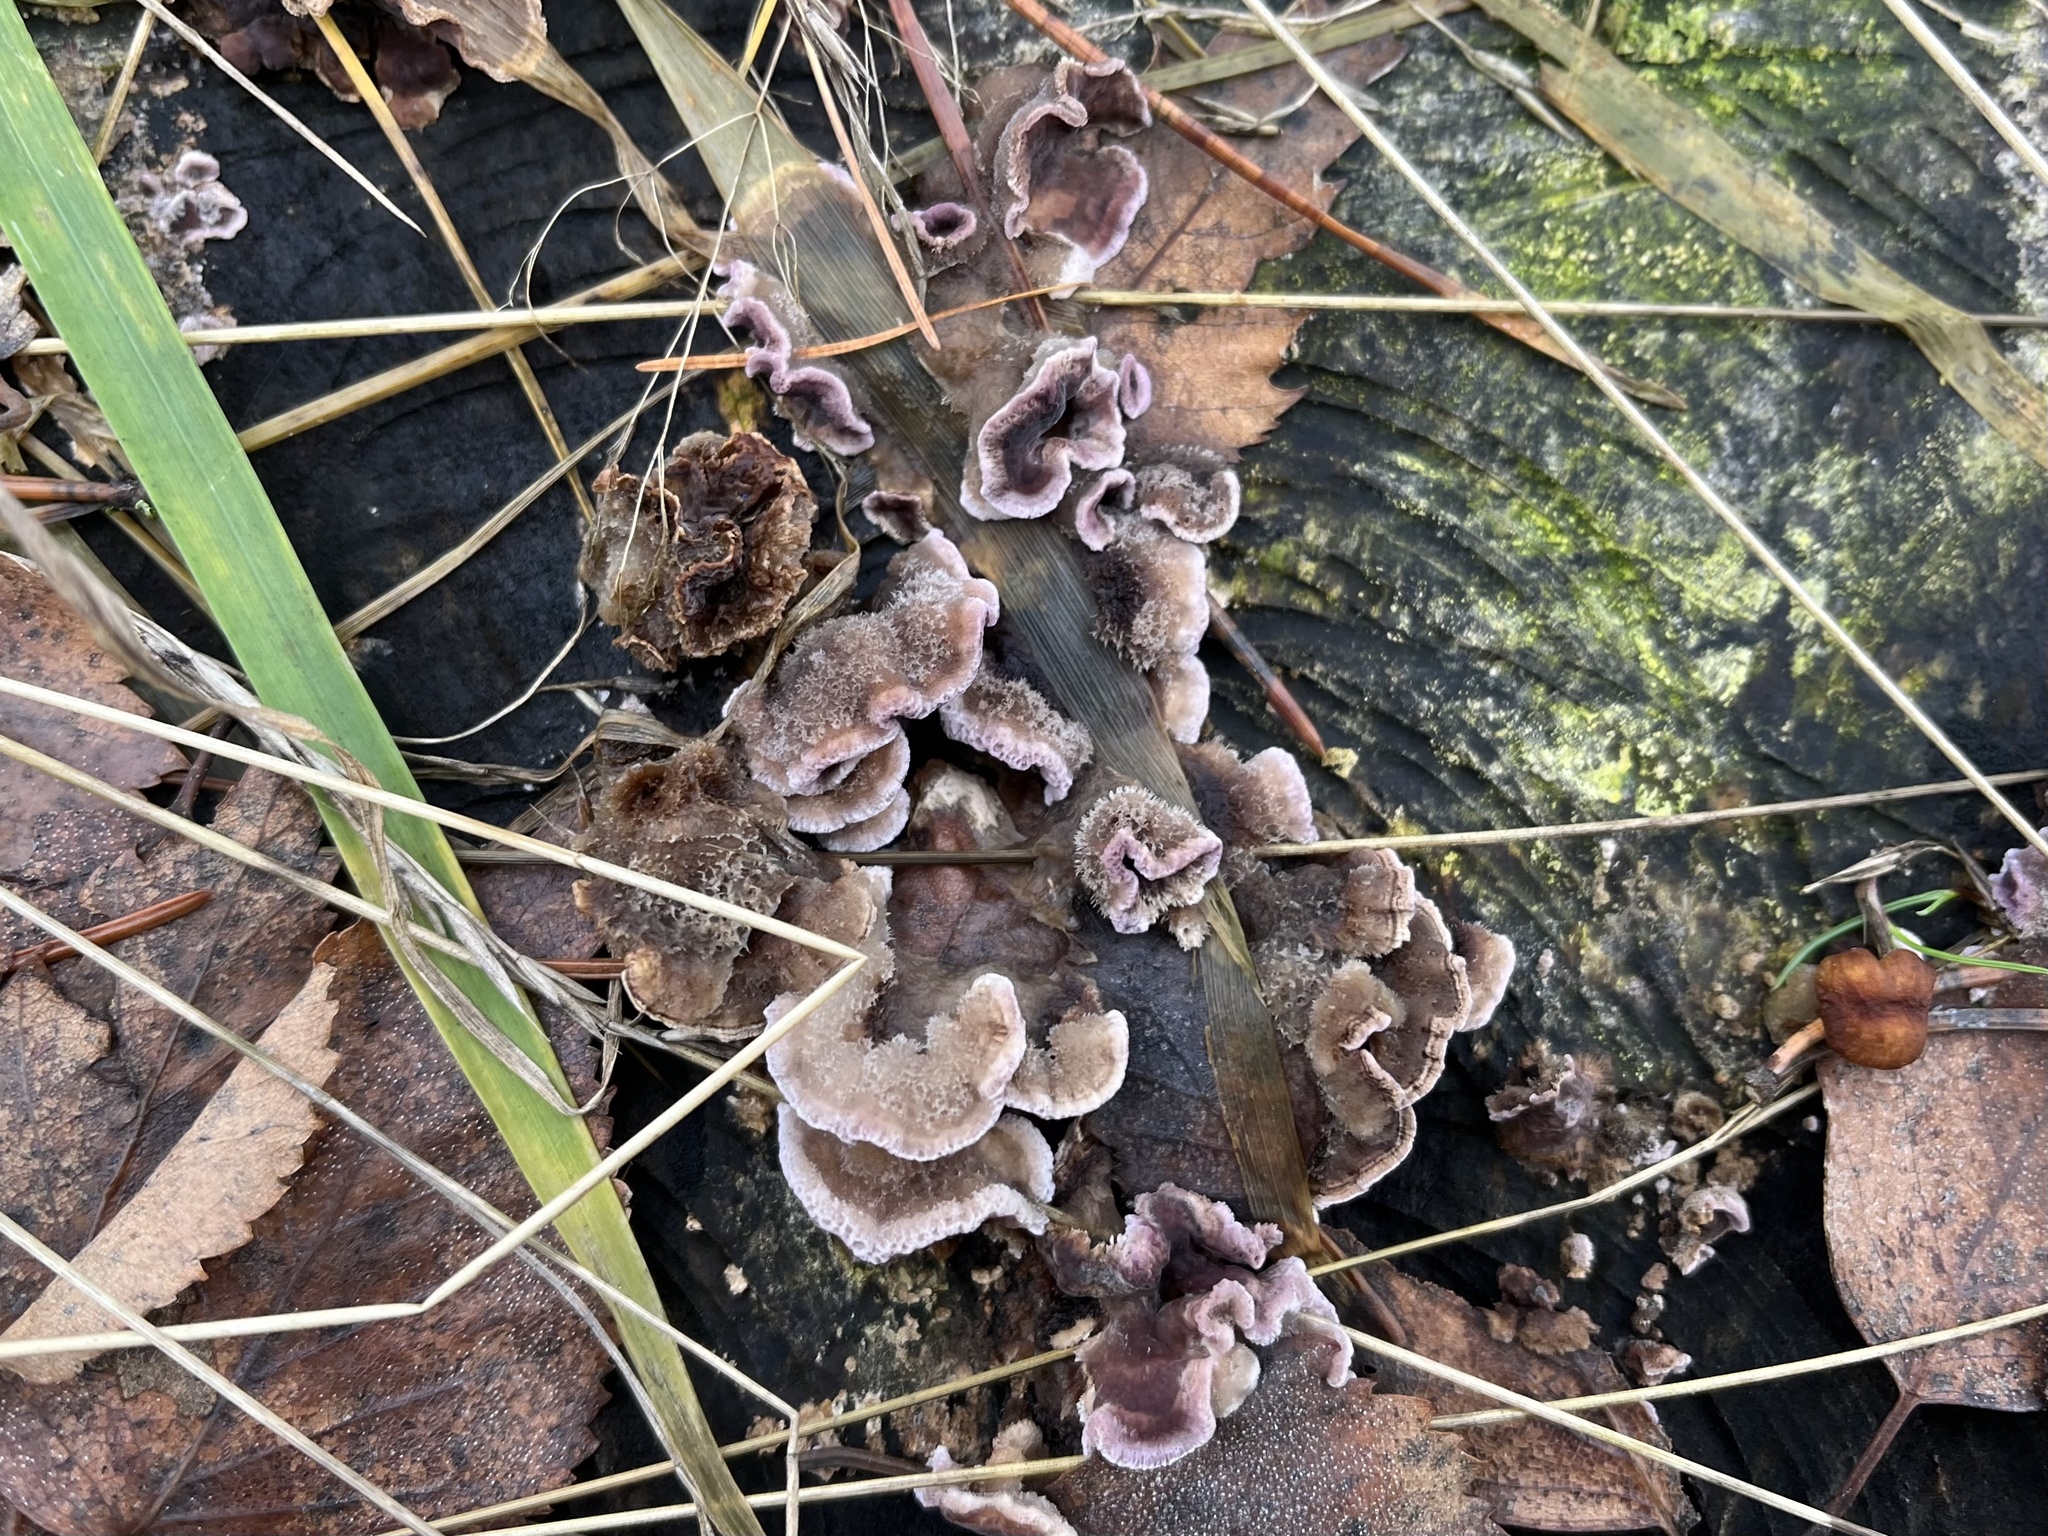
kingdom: Fungi
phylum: Basidiomycota
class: Agaricomycetes
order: Agaricales
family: Cyphellaceae
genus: Chondrostereum
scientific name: Chondrostereum purpureum
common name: Silver leaf disease
